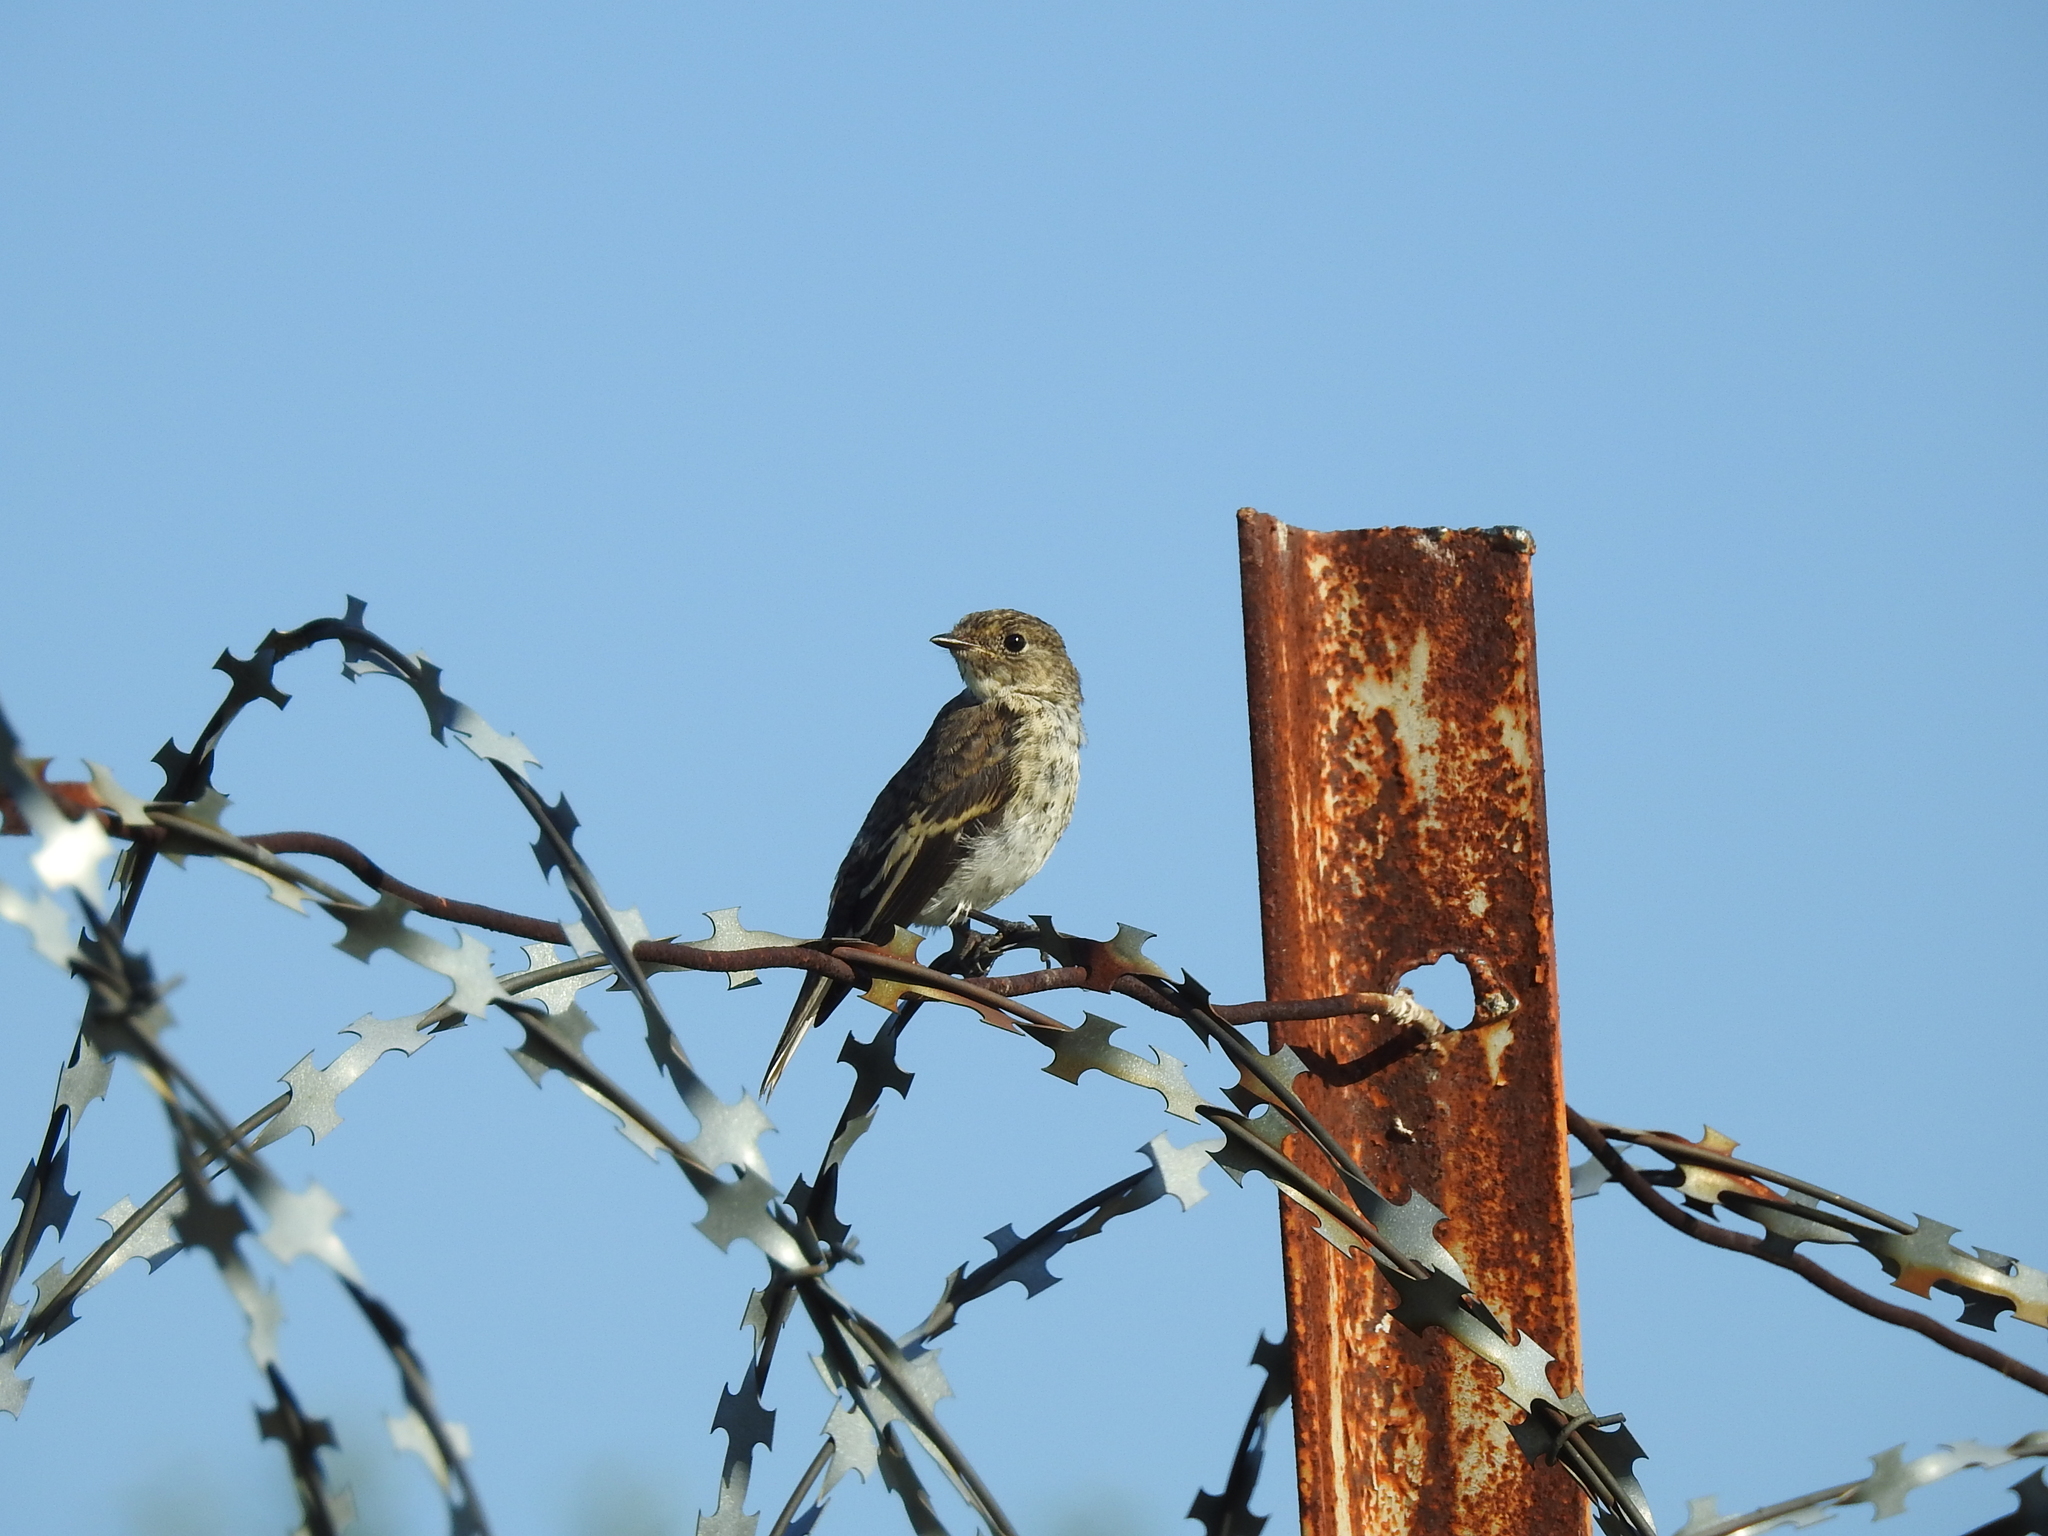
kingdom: Animalia
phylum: Chordata
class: Aves
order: Passeriformes
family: Muscicapidae
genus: Muscicapa
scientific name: Muscicapa striata
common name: Spotted flycatcher
